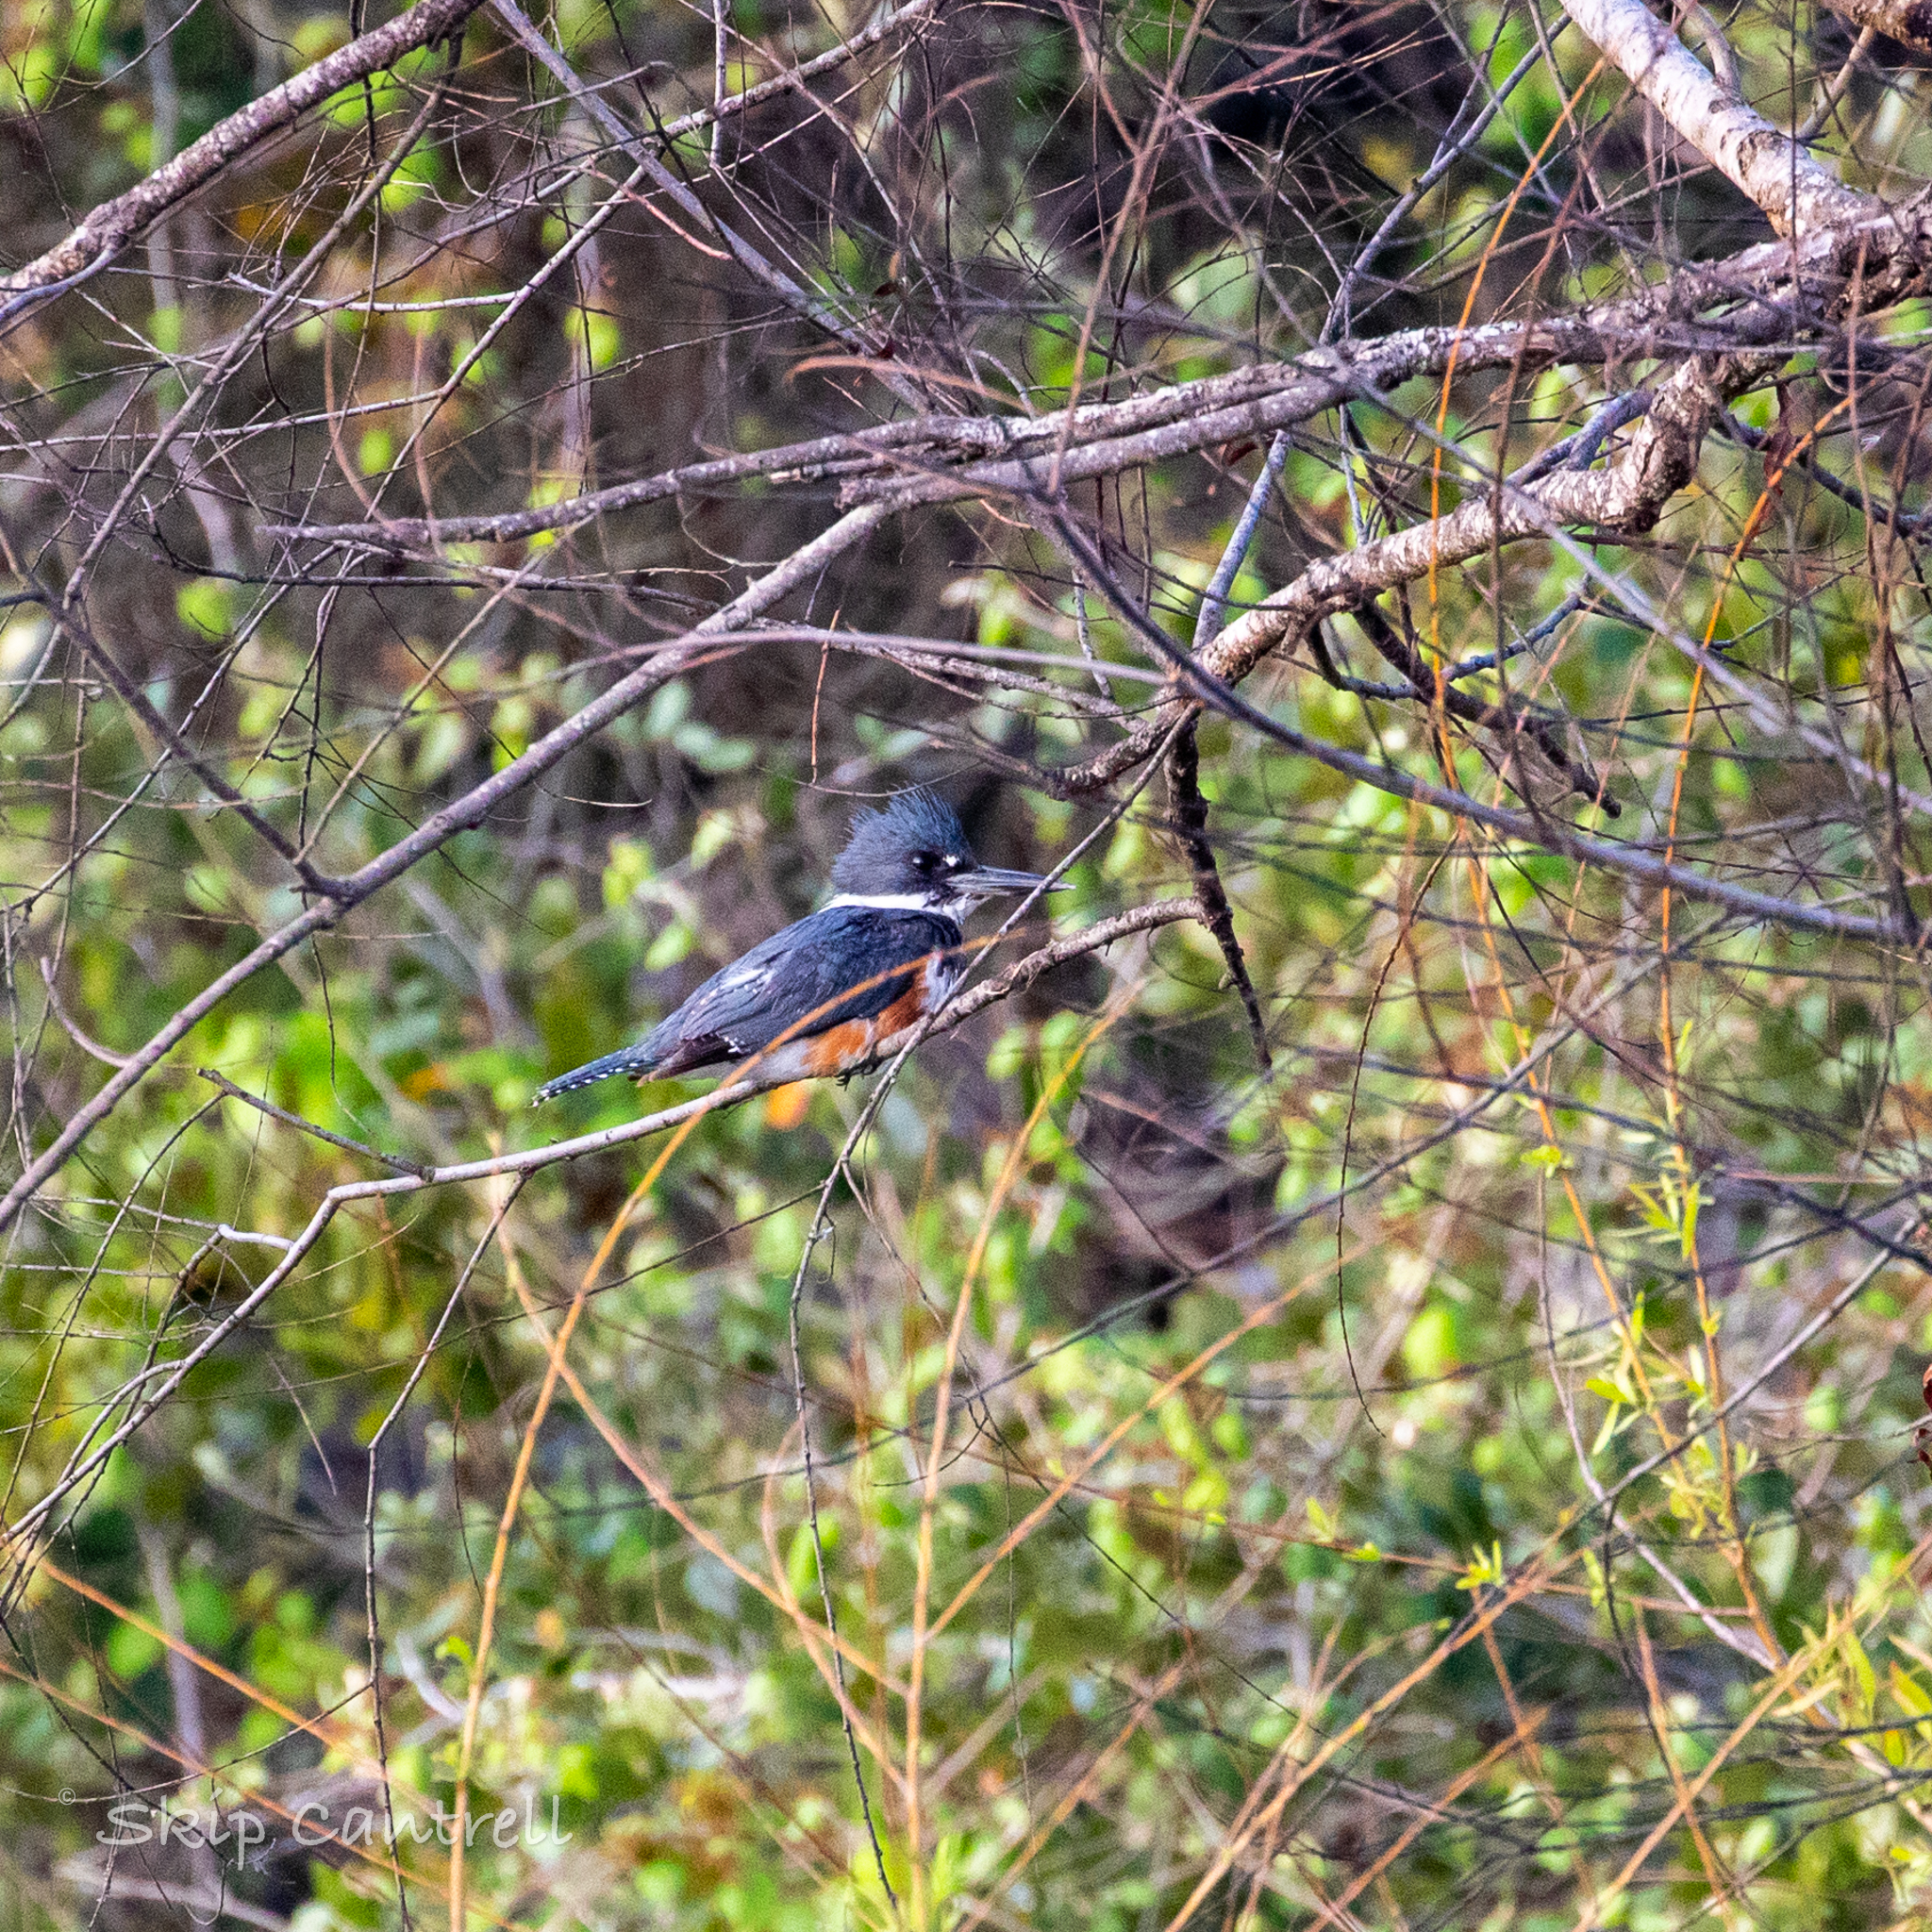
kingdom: Animalia
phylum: Chordata
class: Aves
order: Coraciiformes
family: Alcedinidae
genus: Megaceryle
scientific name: Megaceryle alcyon
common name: Belted kingfisher
